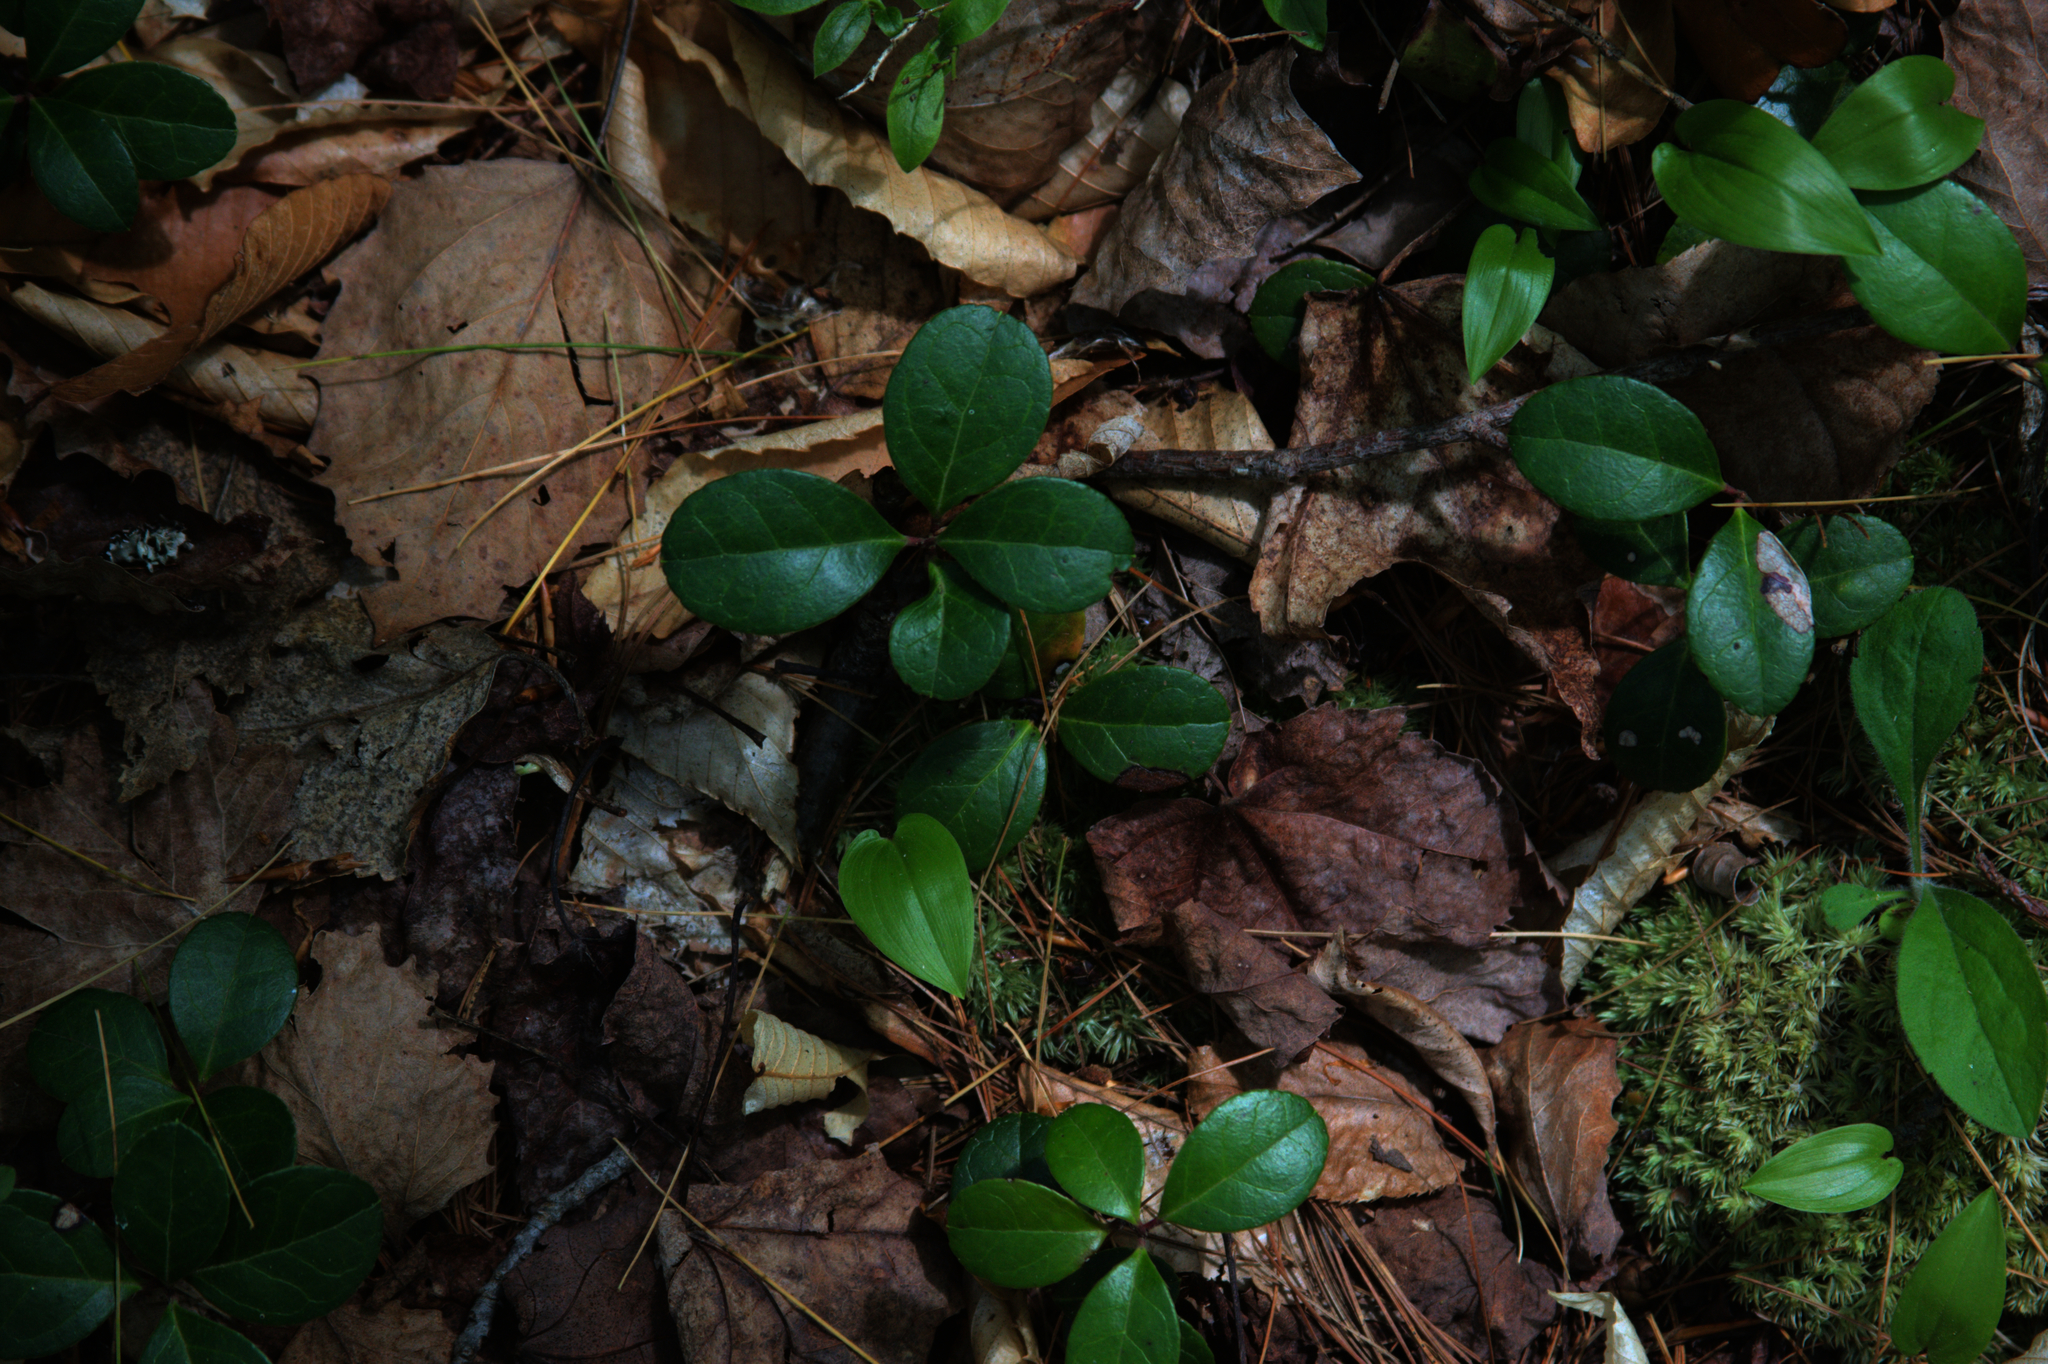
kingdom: Plantae
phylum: Tracheophyta
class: Magnoliopsida
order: Ericales
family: Ericaceae
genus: Gaultheria
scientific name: Gaultheria procumbens
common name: Checkerberry
